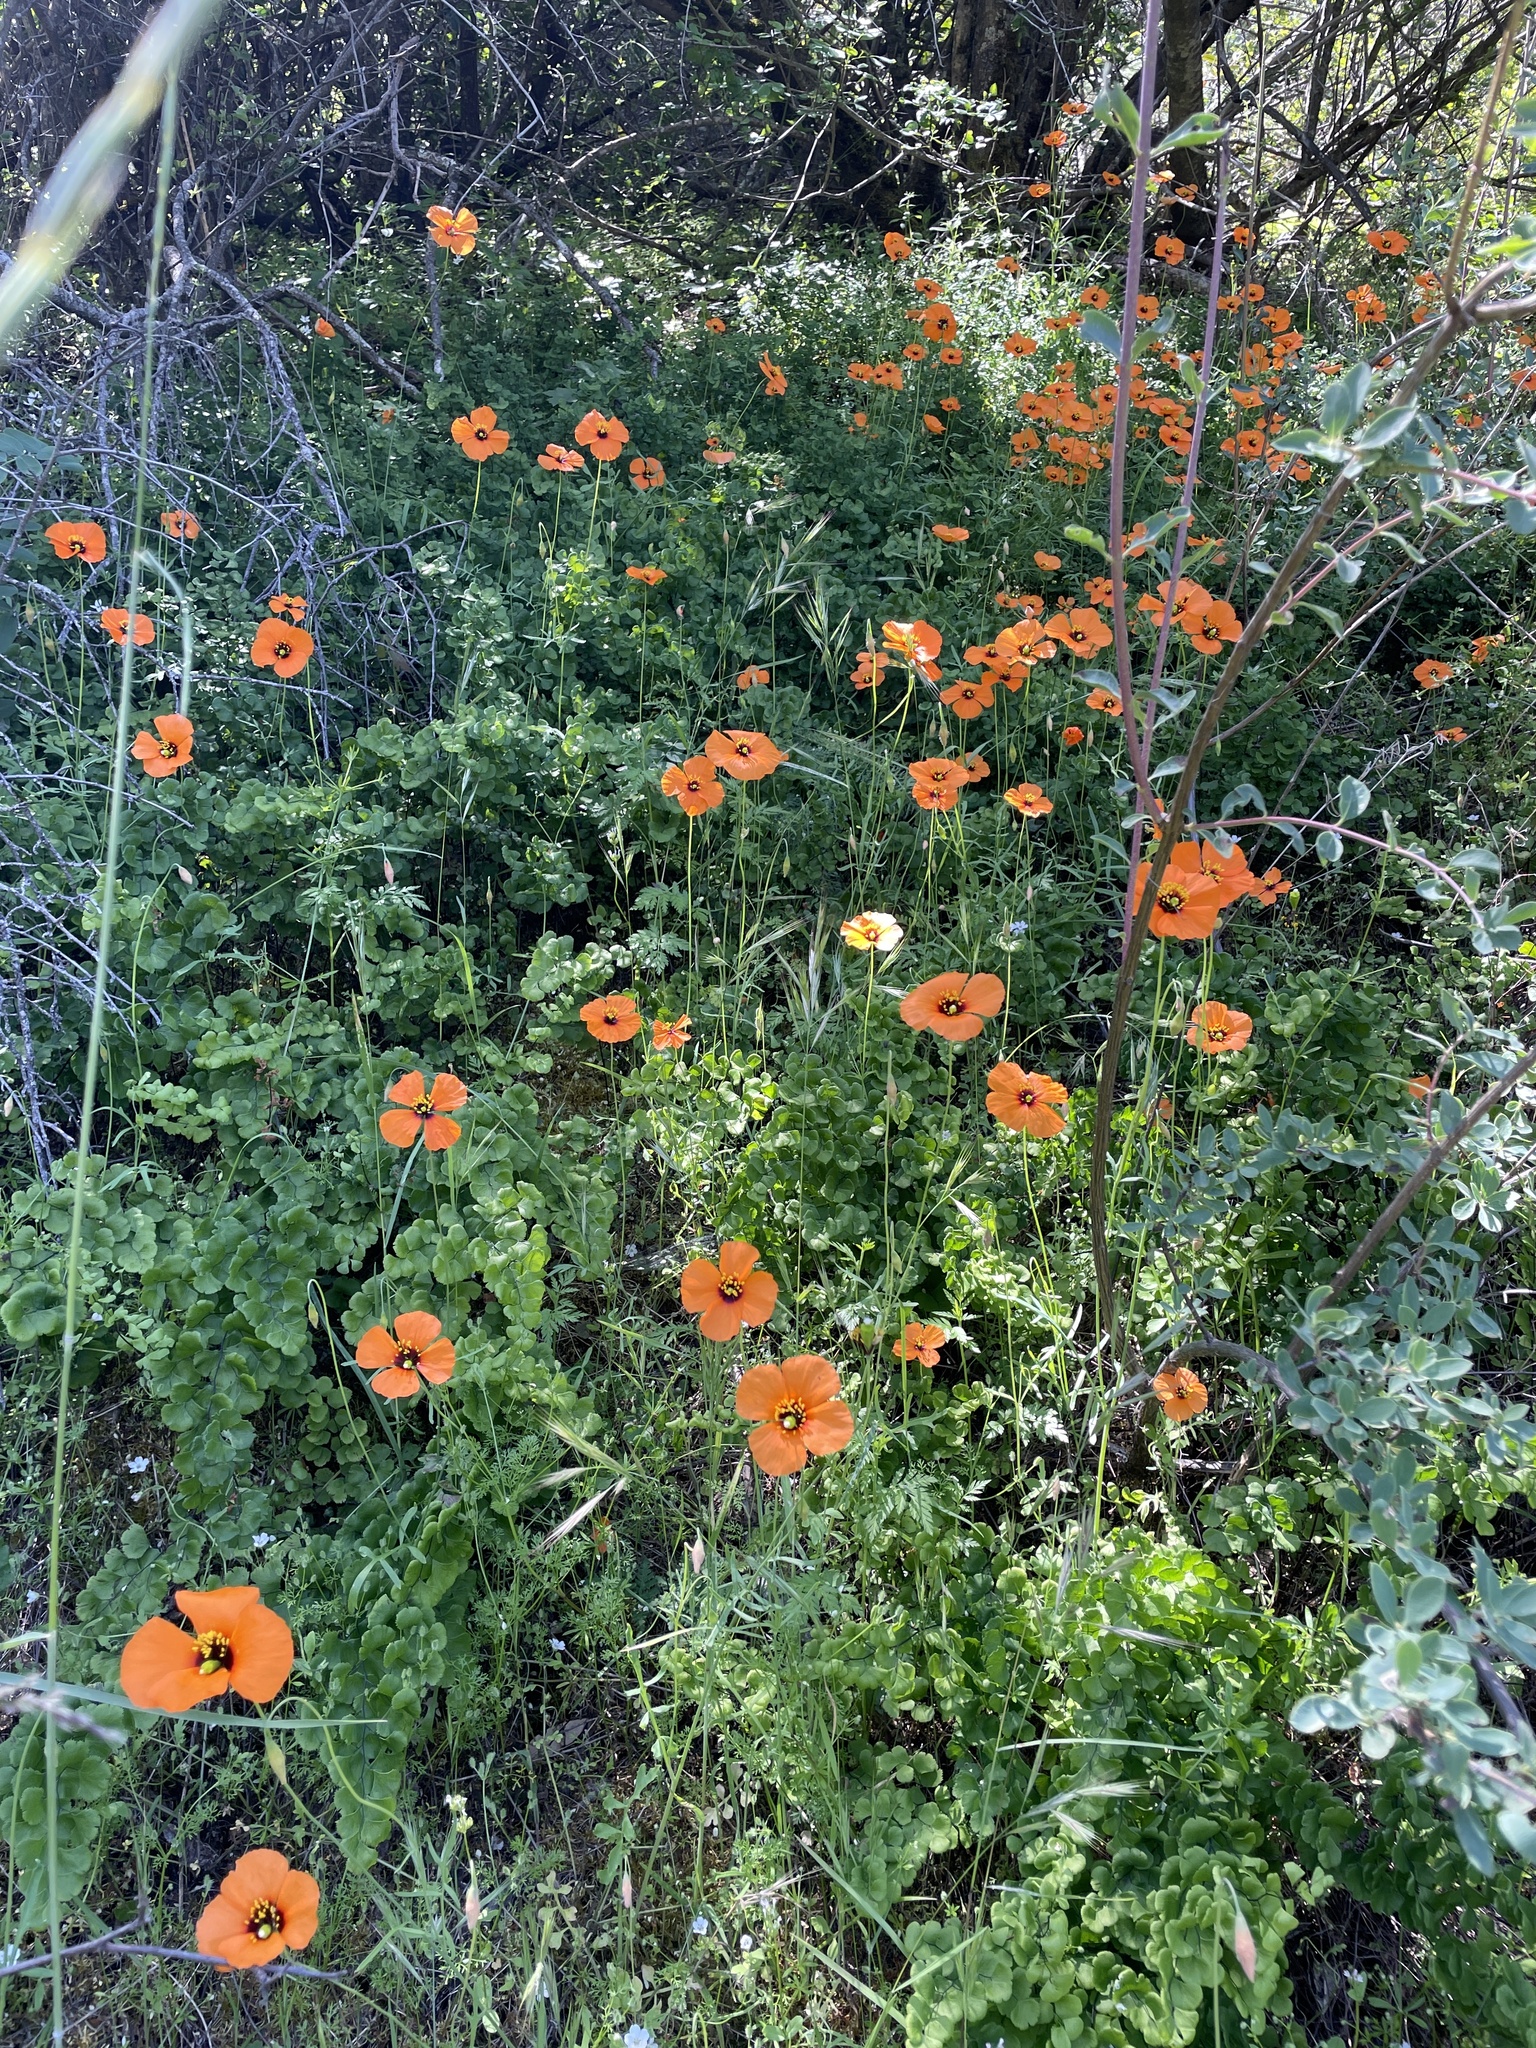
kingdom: Plantae
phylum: Tracheophyta
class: Magnoliopsida
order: Ranunculales
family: Papaveraceae
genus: Stylomecon
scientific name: Stylomecon heterophylla
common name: Flaming-poppy
